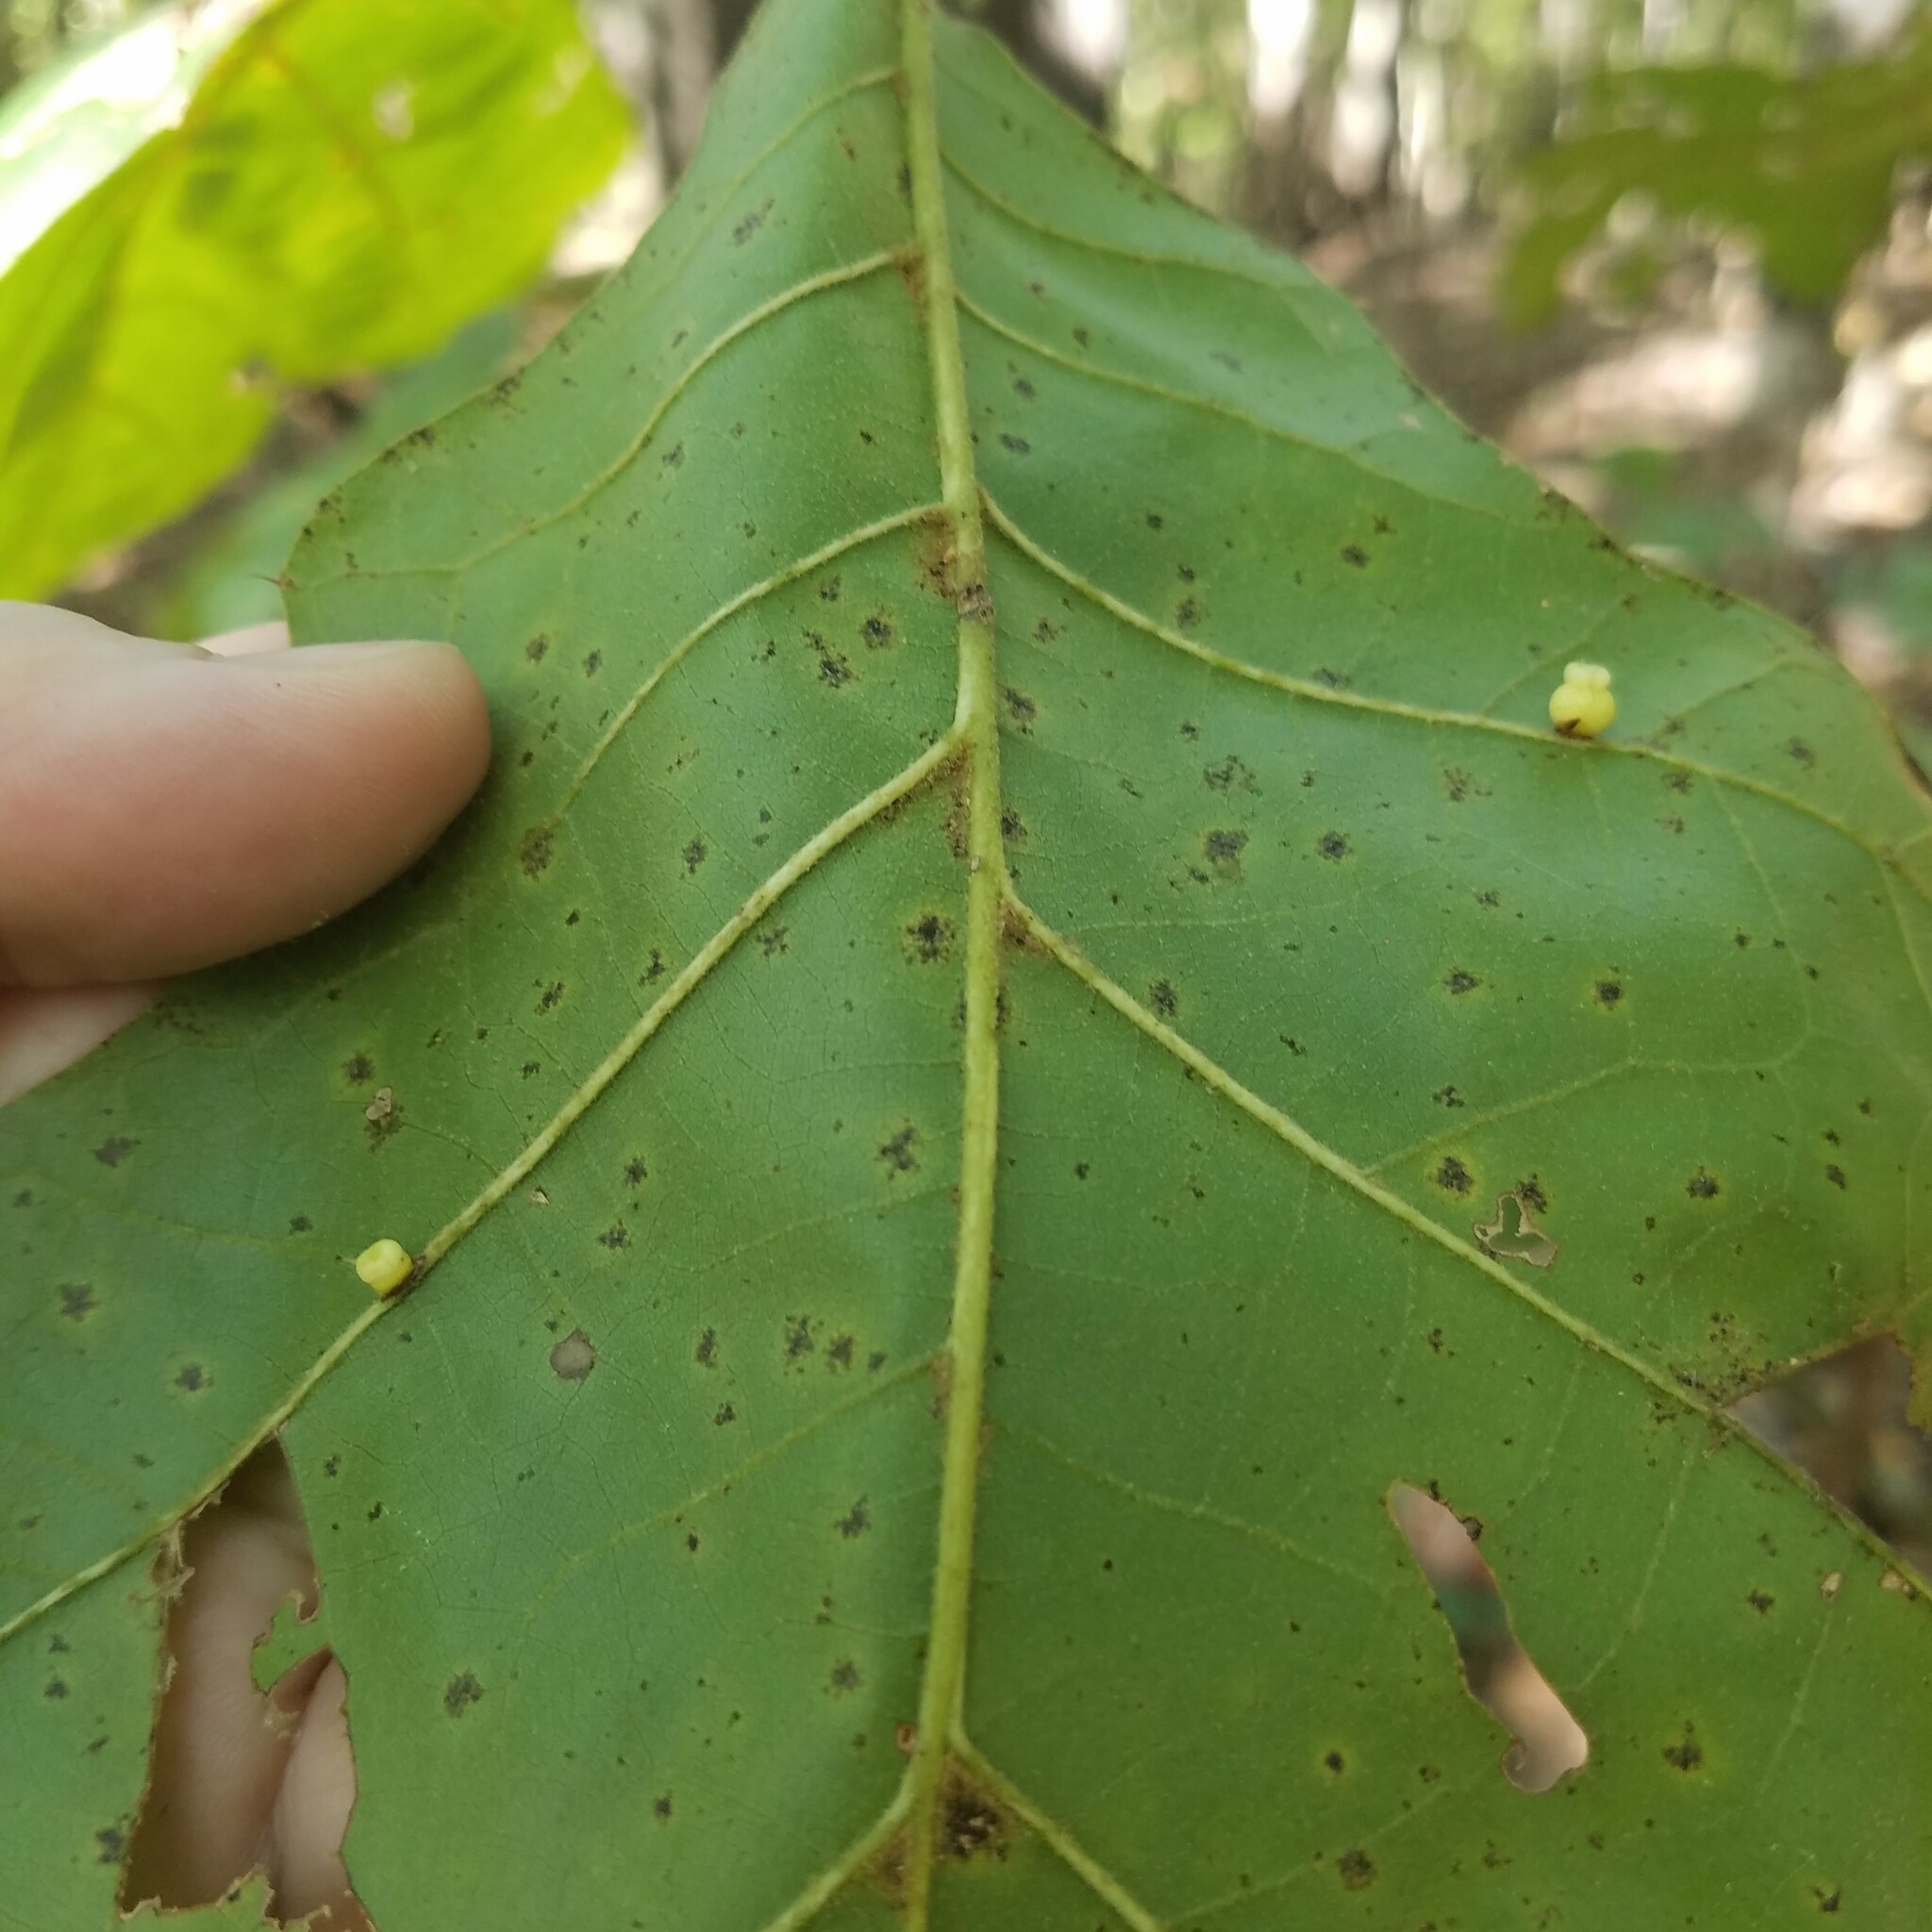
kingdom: Animalia
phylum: Arthropoda
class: Insecta
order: Hymenoptera
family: Cynipidae
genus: Kokkocynips
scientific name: Kokkocynips rileyi
